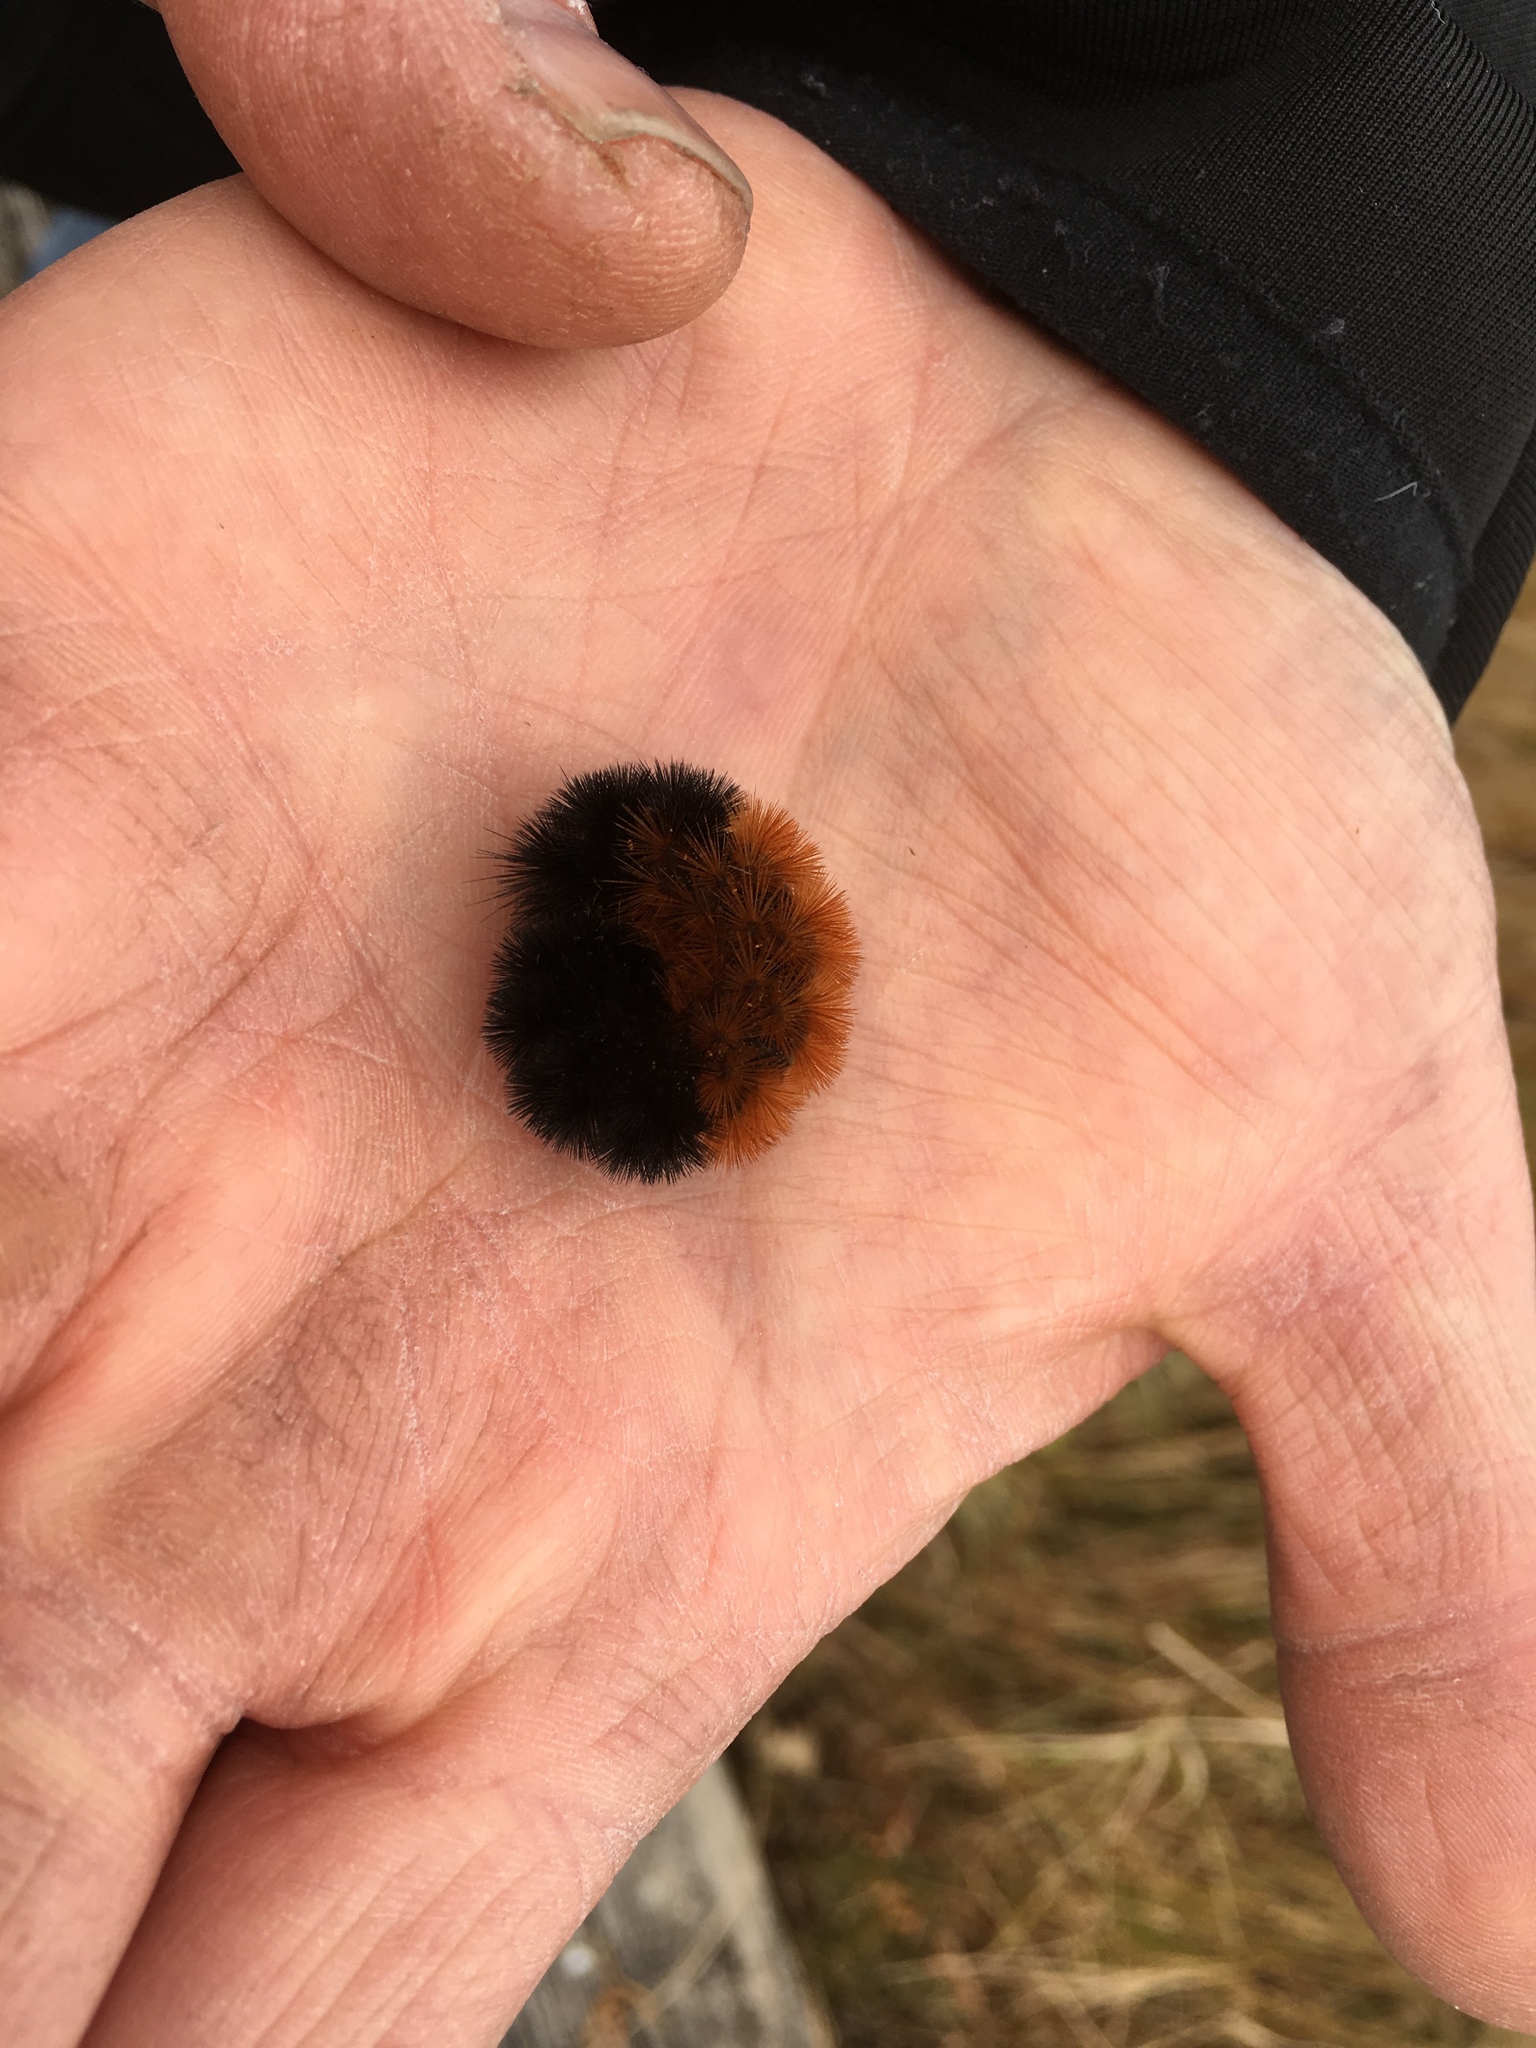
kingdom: Animalia
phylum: Arthropoda
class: Insecta
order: Lepidoptera
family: Erebidae
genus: Pyrrharctia
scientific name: Pyrrharctia isabella
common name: Isabella tiger moth
